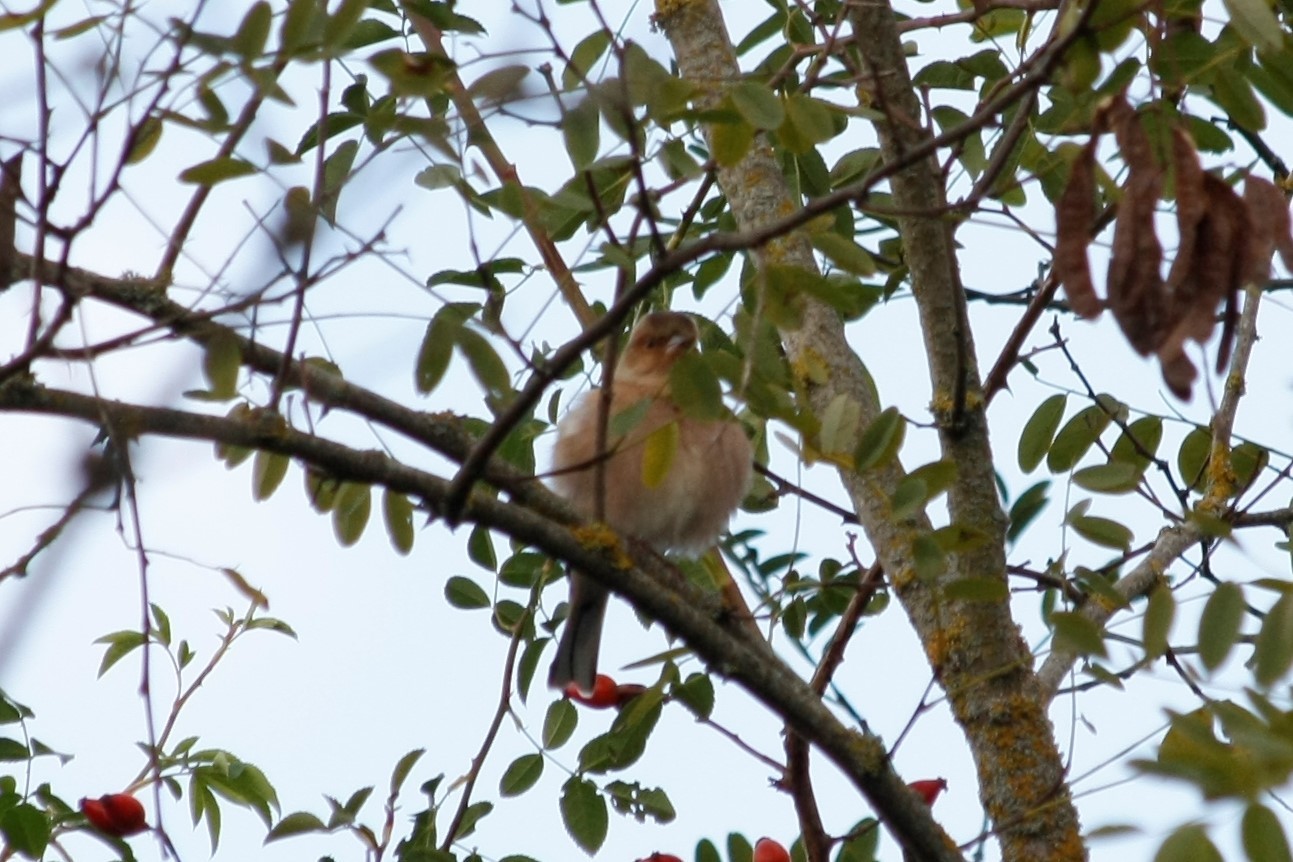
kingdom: Animalia
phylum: Chordata
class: Aves
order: Passeriformes
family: Fringillidae
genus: Fringilla
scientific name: Fringilla coelebs
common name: Common chaffinch
